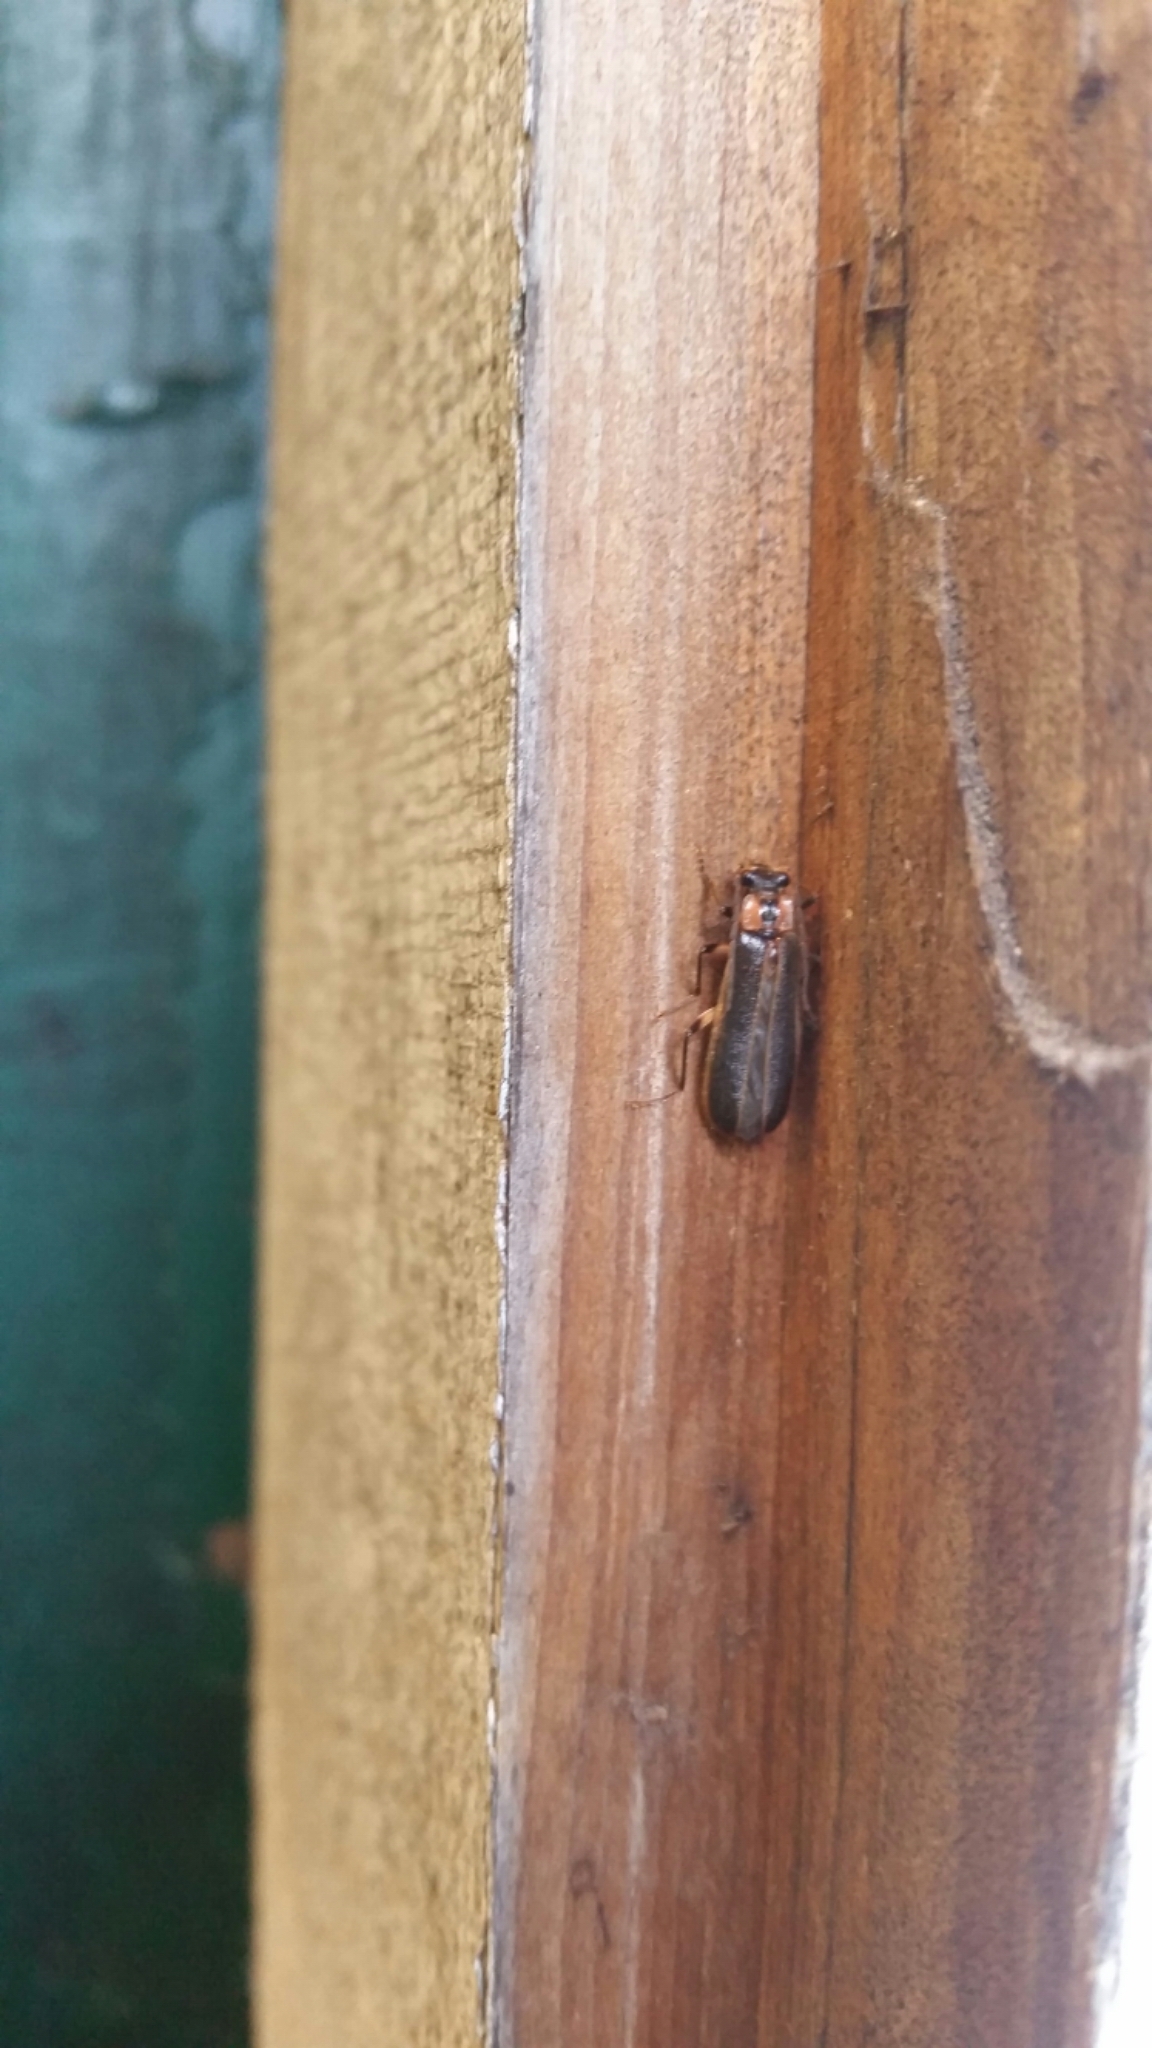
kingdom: Animalia
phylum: Arthropoda
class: Insecta
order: Coleoptera
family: Cantharidae
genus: Podabrus
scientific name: Podabrus basilaris
